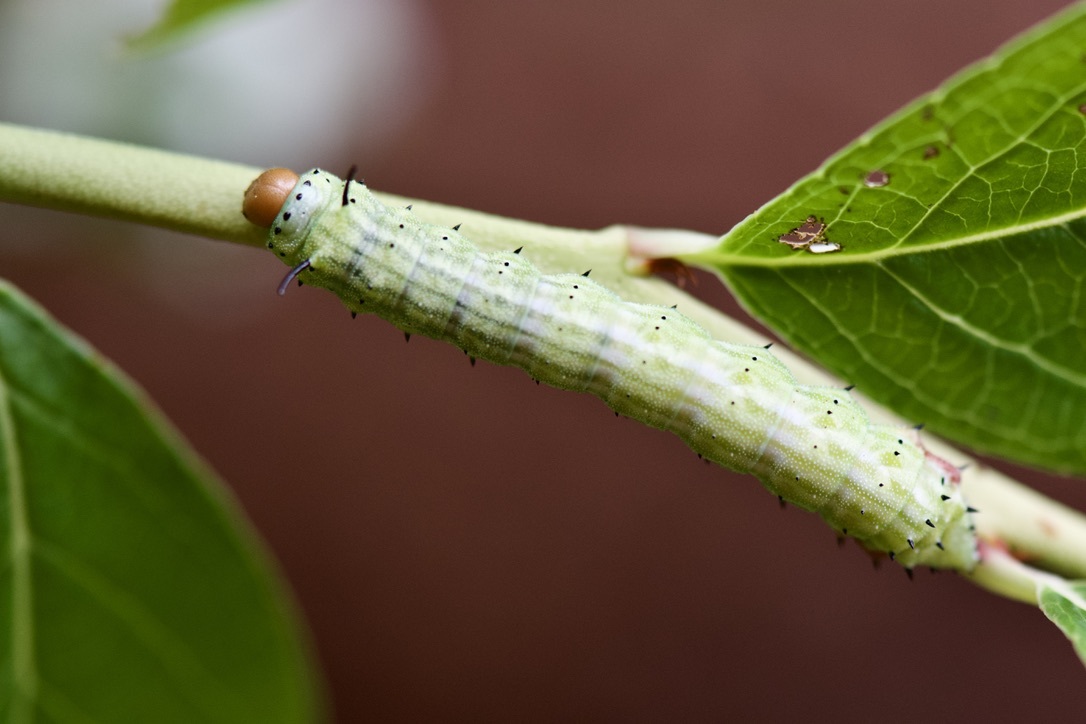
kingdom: Animalia
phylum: Arthropoda
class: Insecta
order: Lepidoptera
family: Saturniidae
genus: Dryocampa
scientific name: Dryocampa rubicunda
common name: Rosy maple moth
